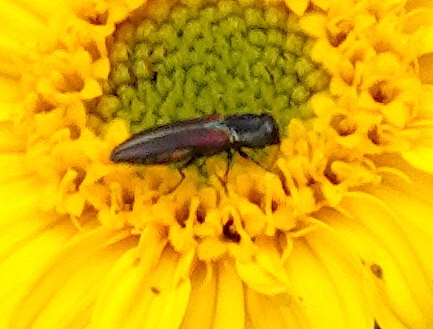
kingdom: Animalia
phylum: Arthropoda
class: Insecta
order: Coleoptera
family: Buprestidae
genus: Agrilaxia
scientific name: Agrilaxia flavimana
